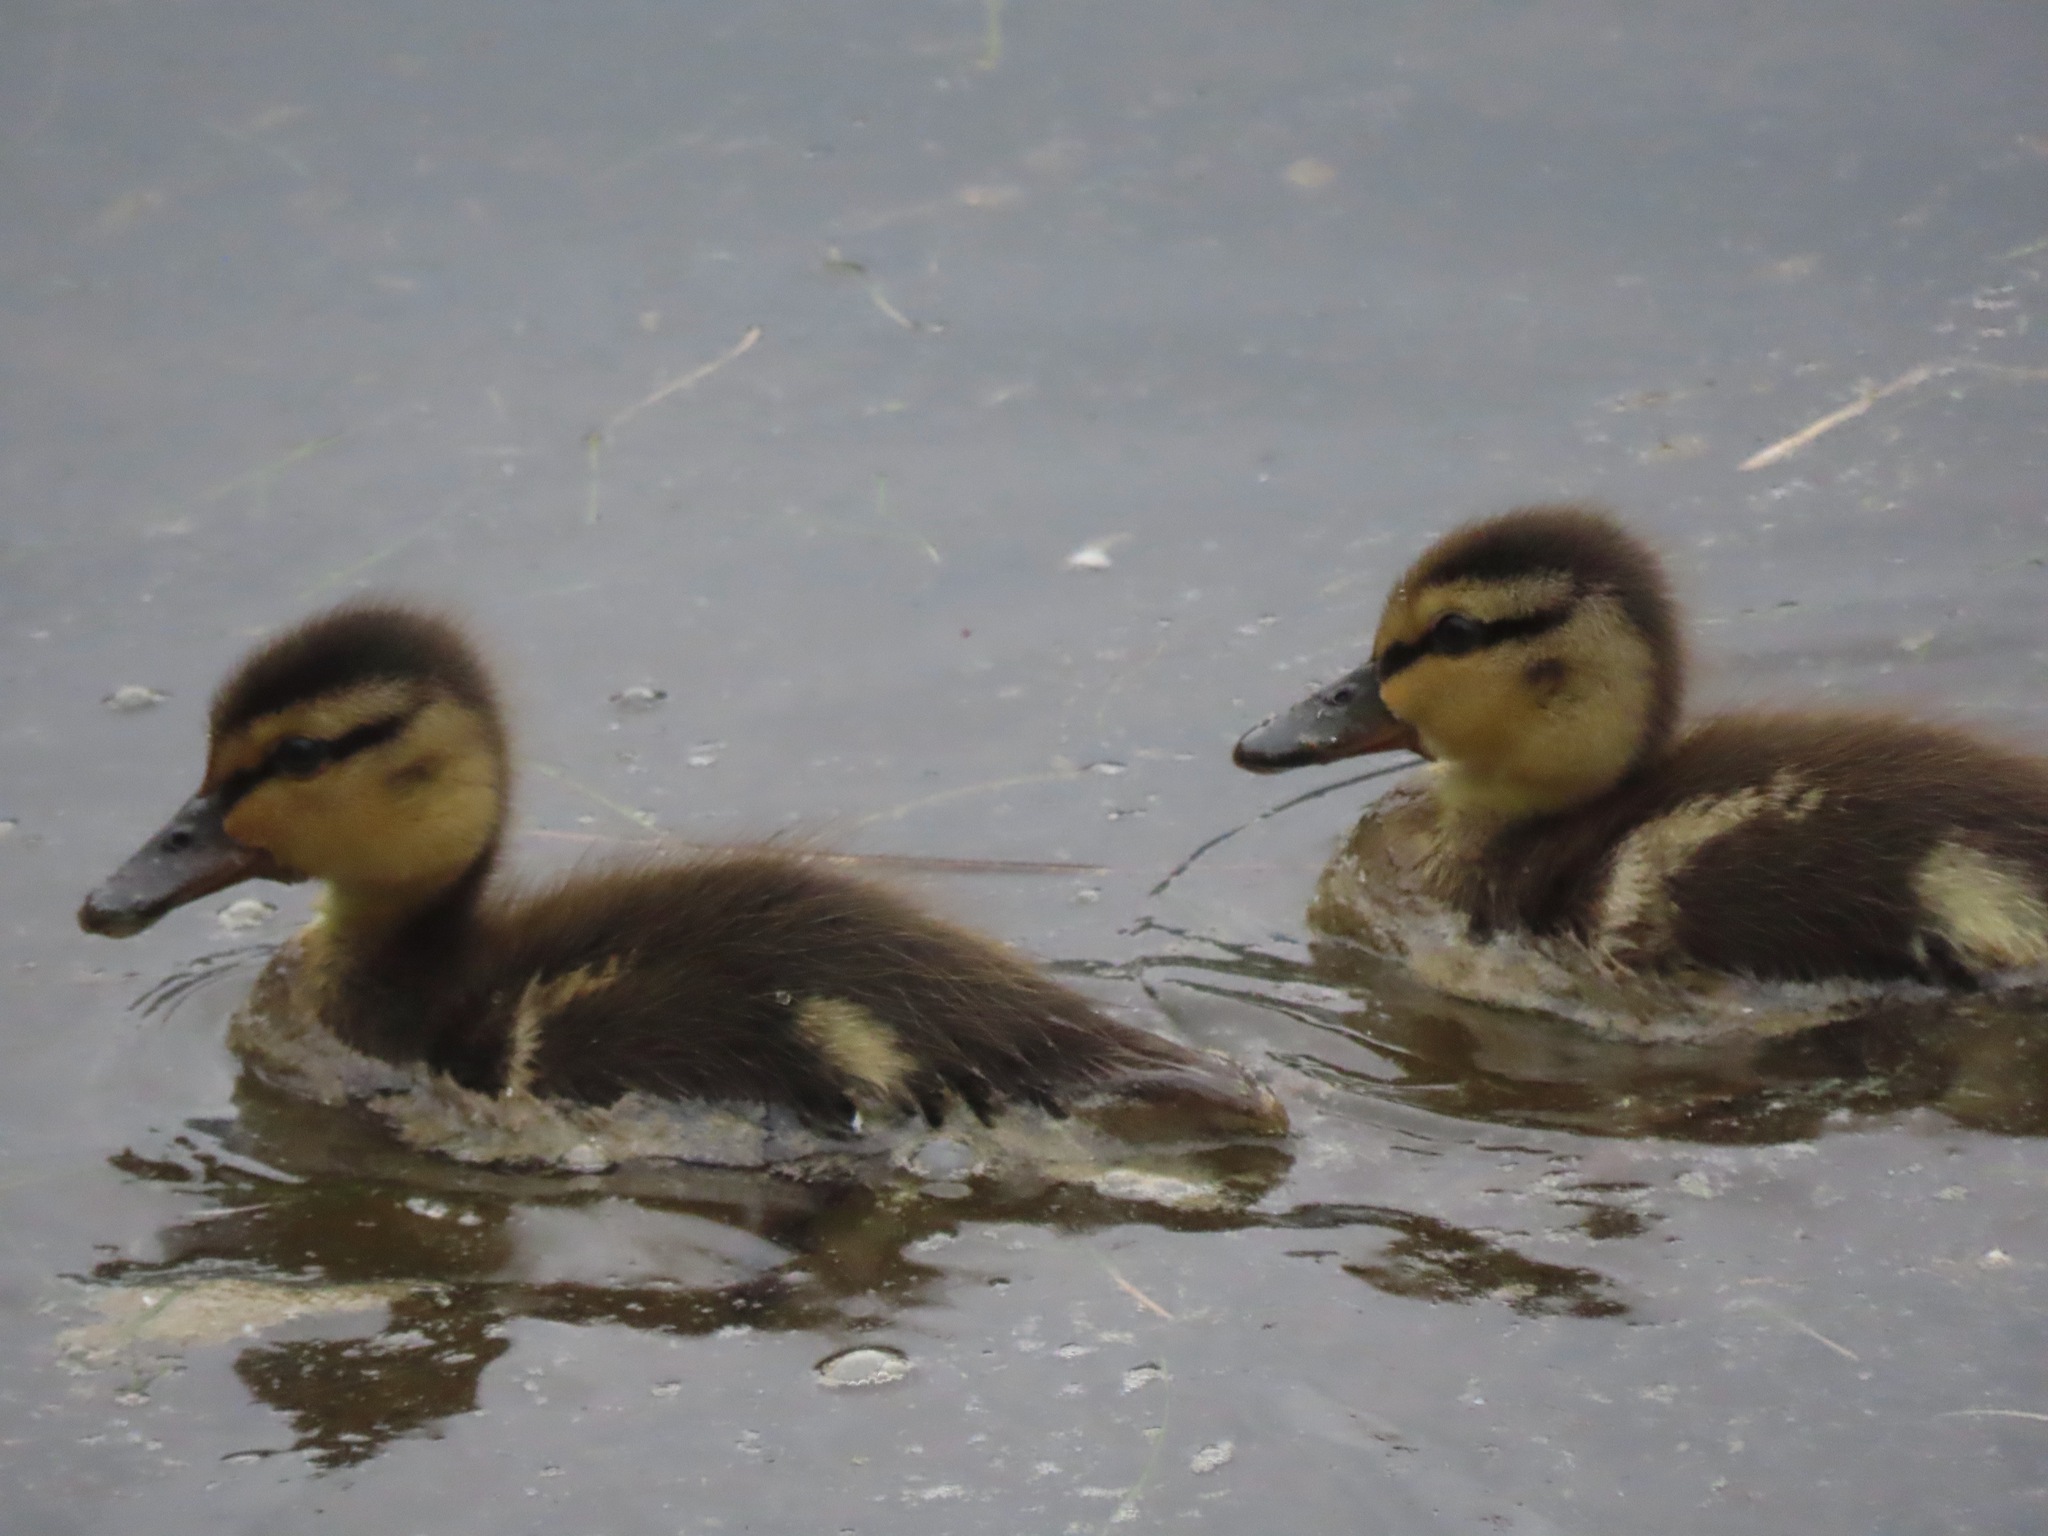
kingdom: Animalia
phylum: Chordata
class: Aves
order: Anseriformes
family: Anatidae
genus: Anas
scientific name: Anas platyrhynchos
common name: Mallard
